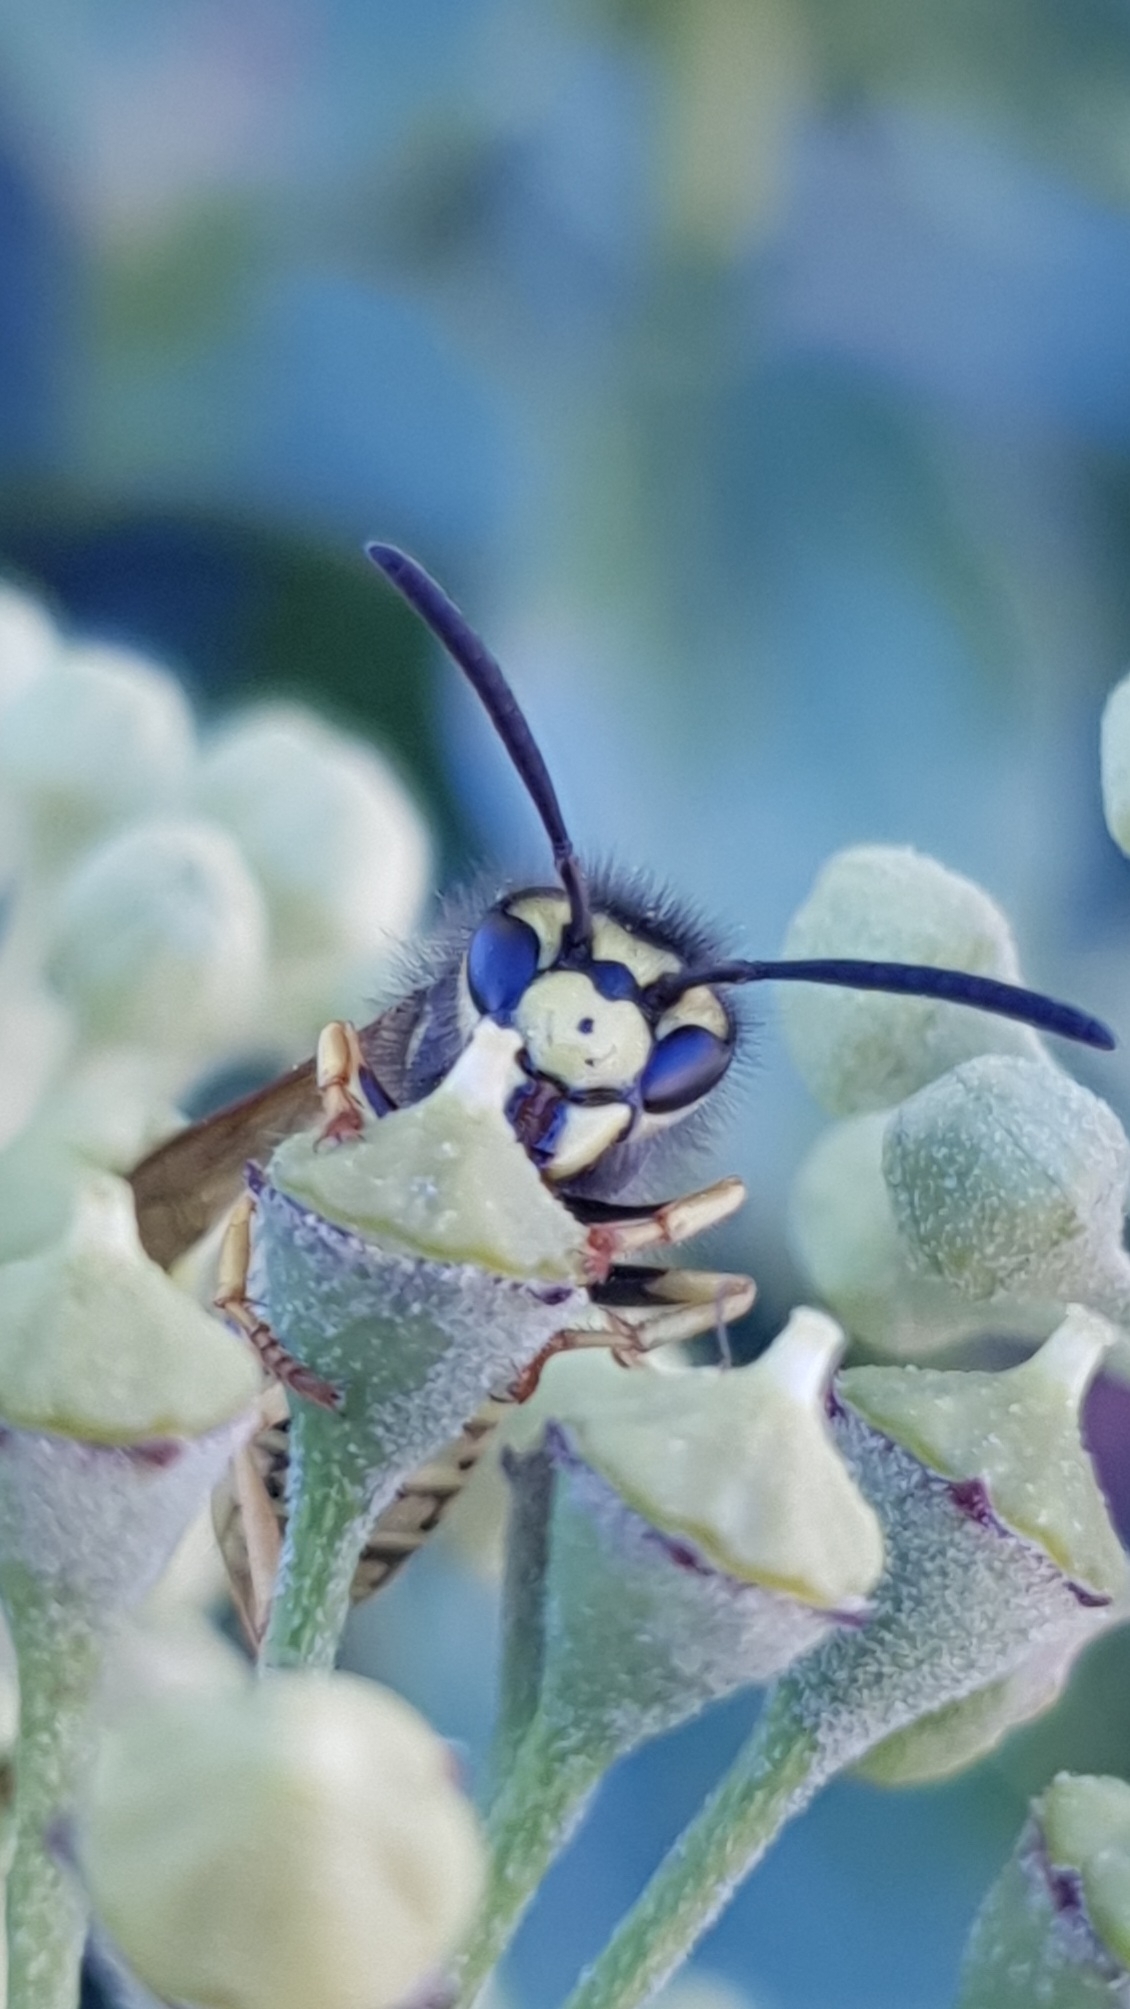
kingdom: Animalia
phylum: Arthropoda
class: Insecta
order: Hymenoptera
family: Vespidae
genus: Vespula
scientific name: Vespula germanica
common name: German wasp
